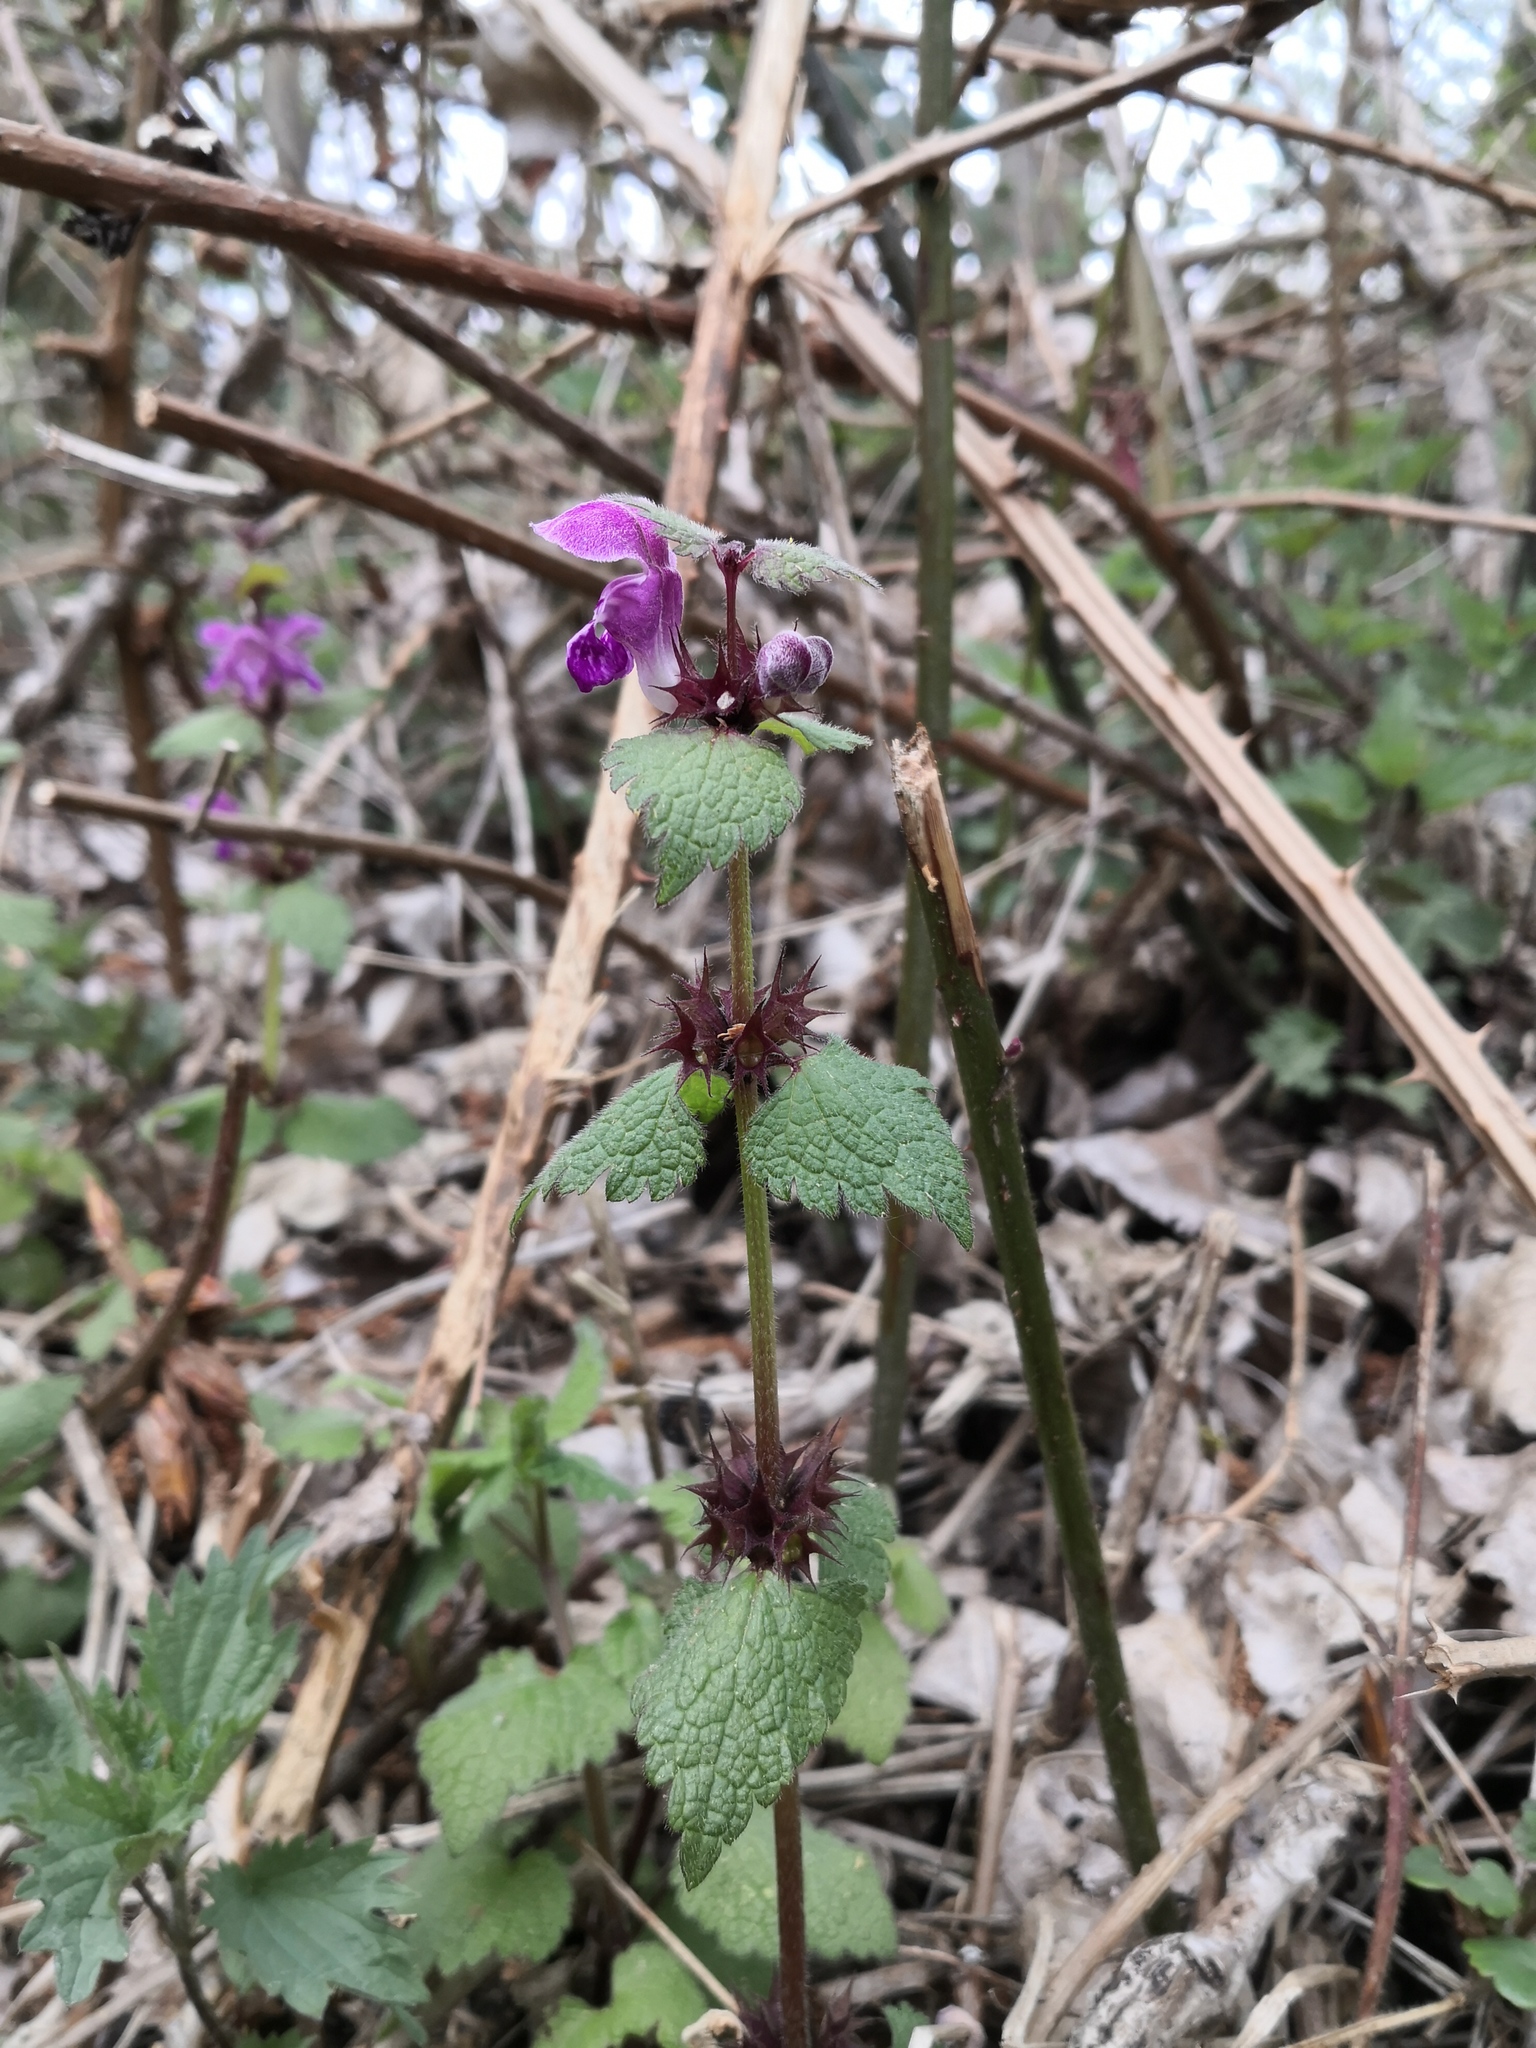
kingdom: Plantae
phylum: Tracheophyta
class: Magnoliopsida
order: Lamiales
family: Lamiaceae
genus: Lamium
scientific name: Lamium maculatum
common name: Spotted dead-nettle
